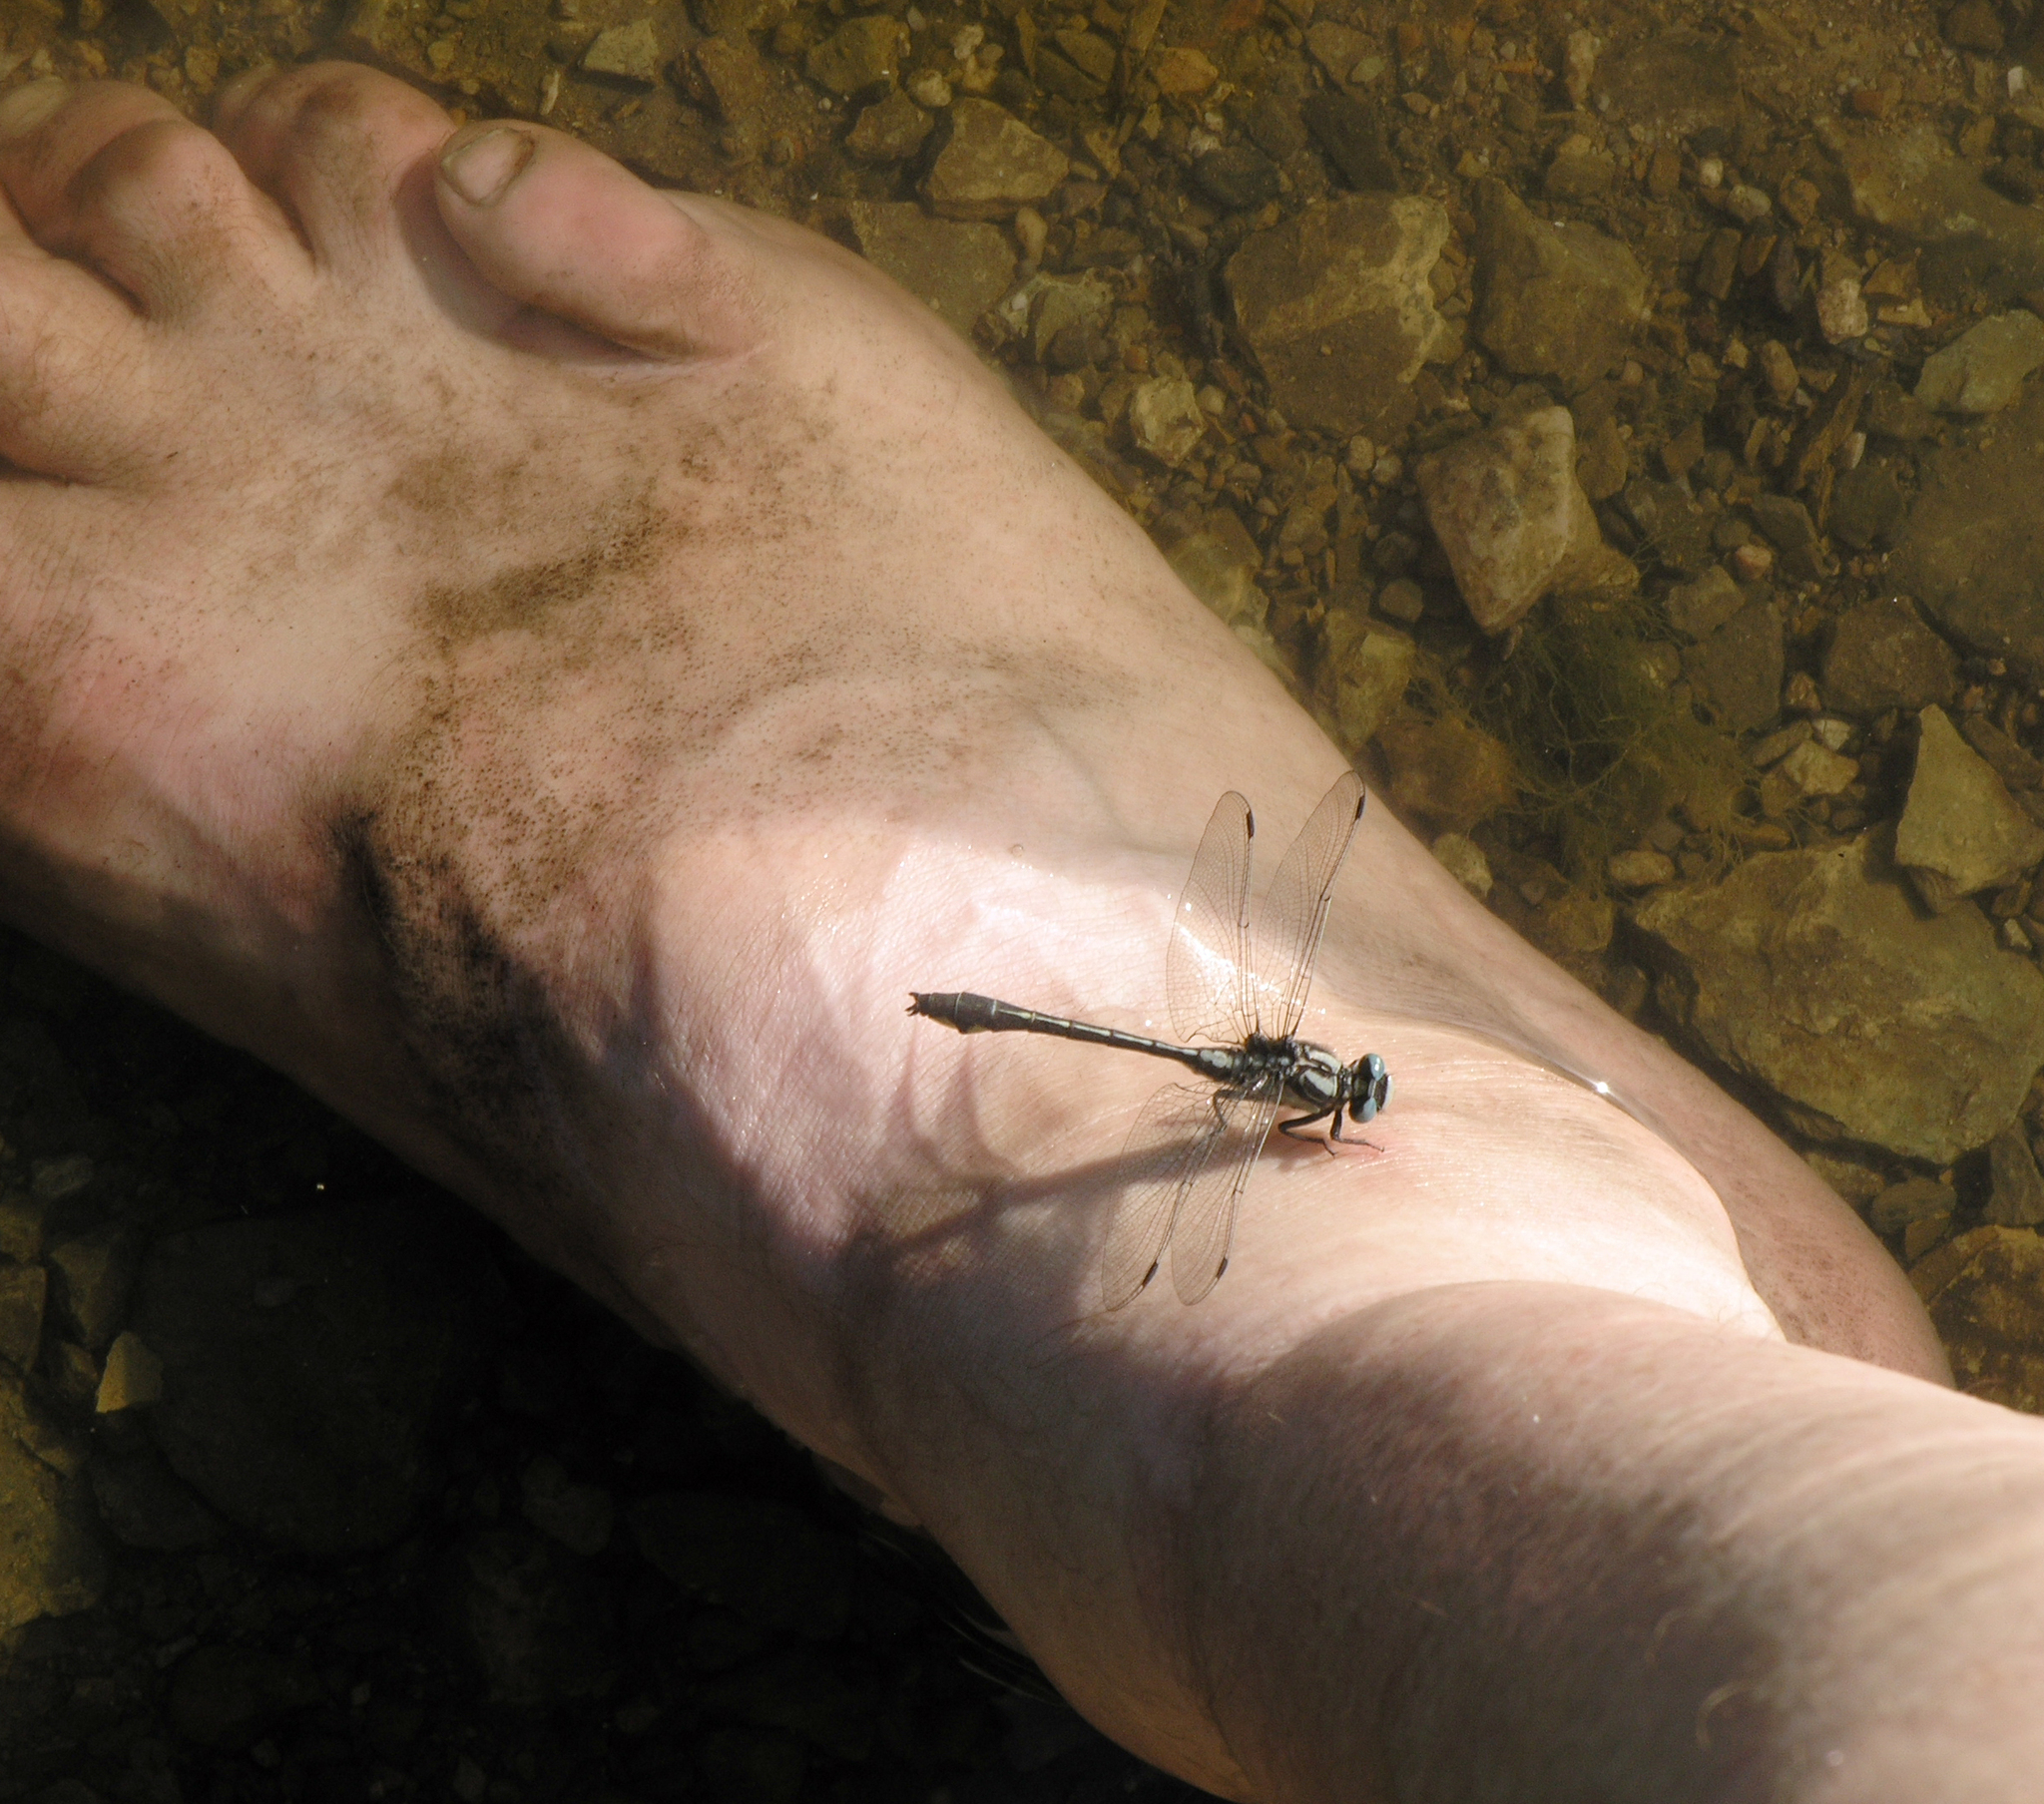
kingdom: Animalia
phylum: Arthropoda
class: Insecta
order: Odonata
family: Gomphidae
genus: Gomphus
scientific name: Gomphus vulgatissimus
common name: Club-tailed dragonfly
